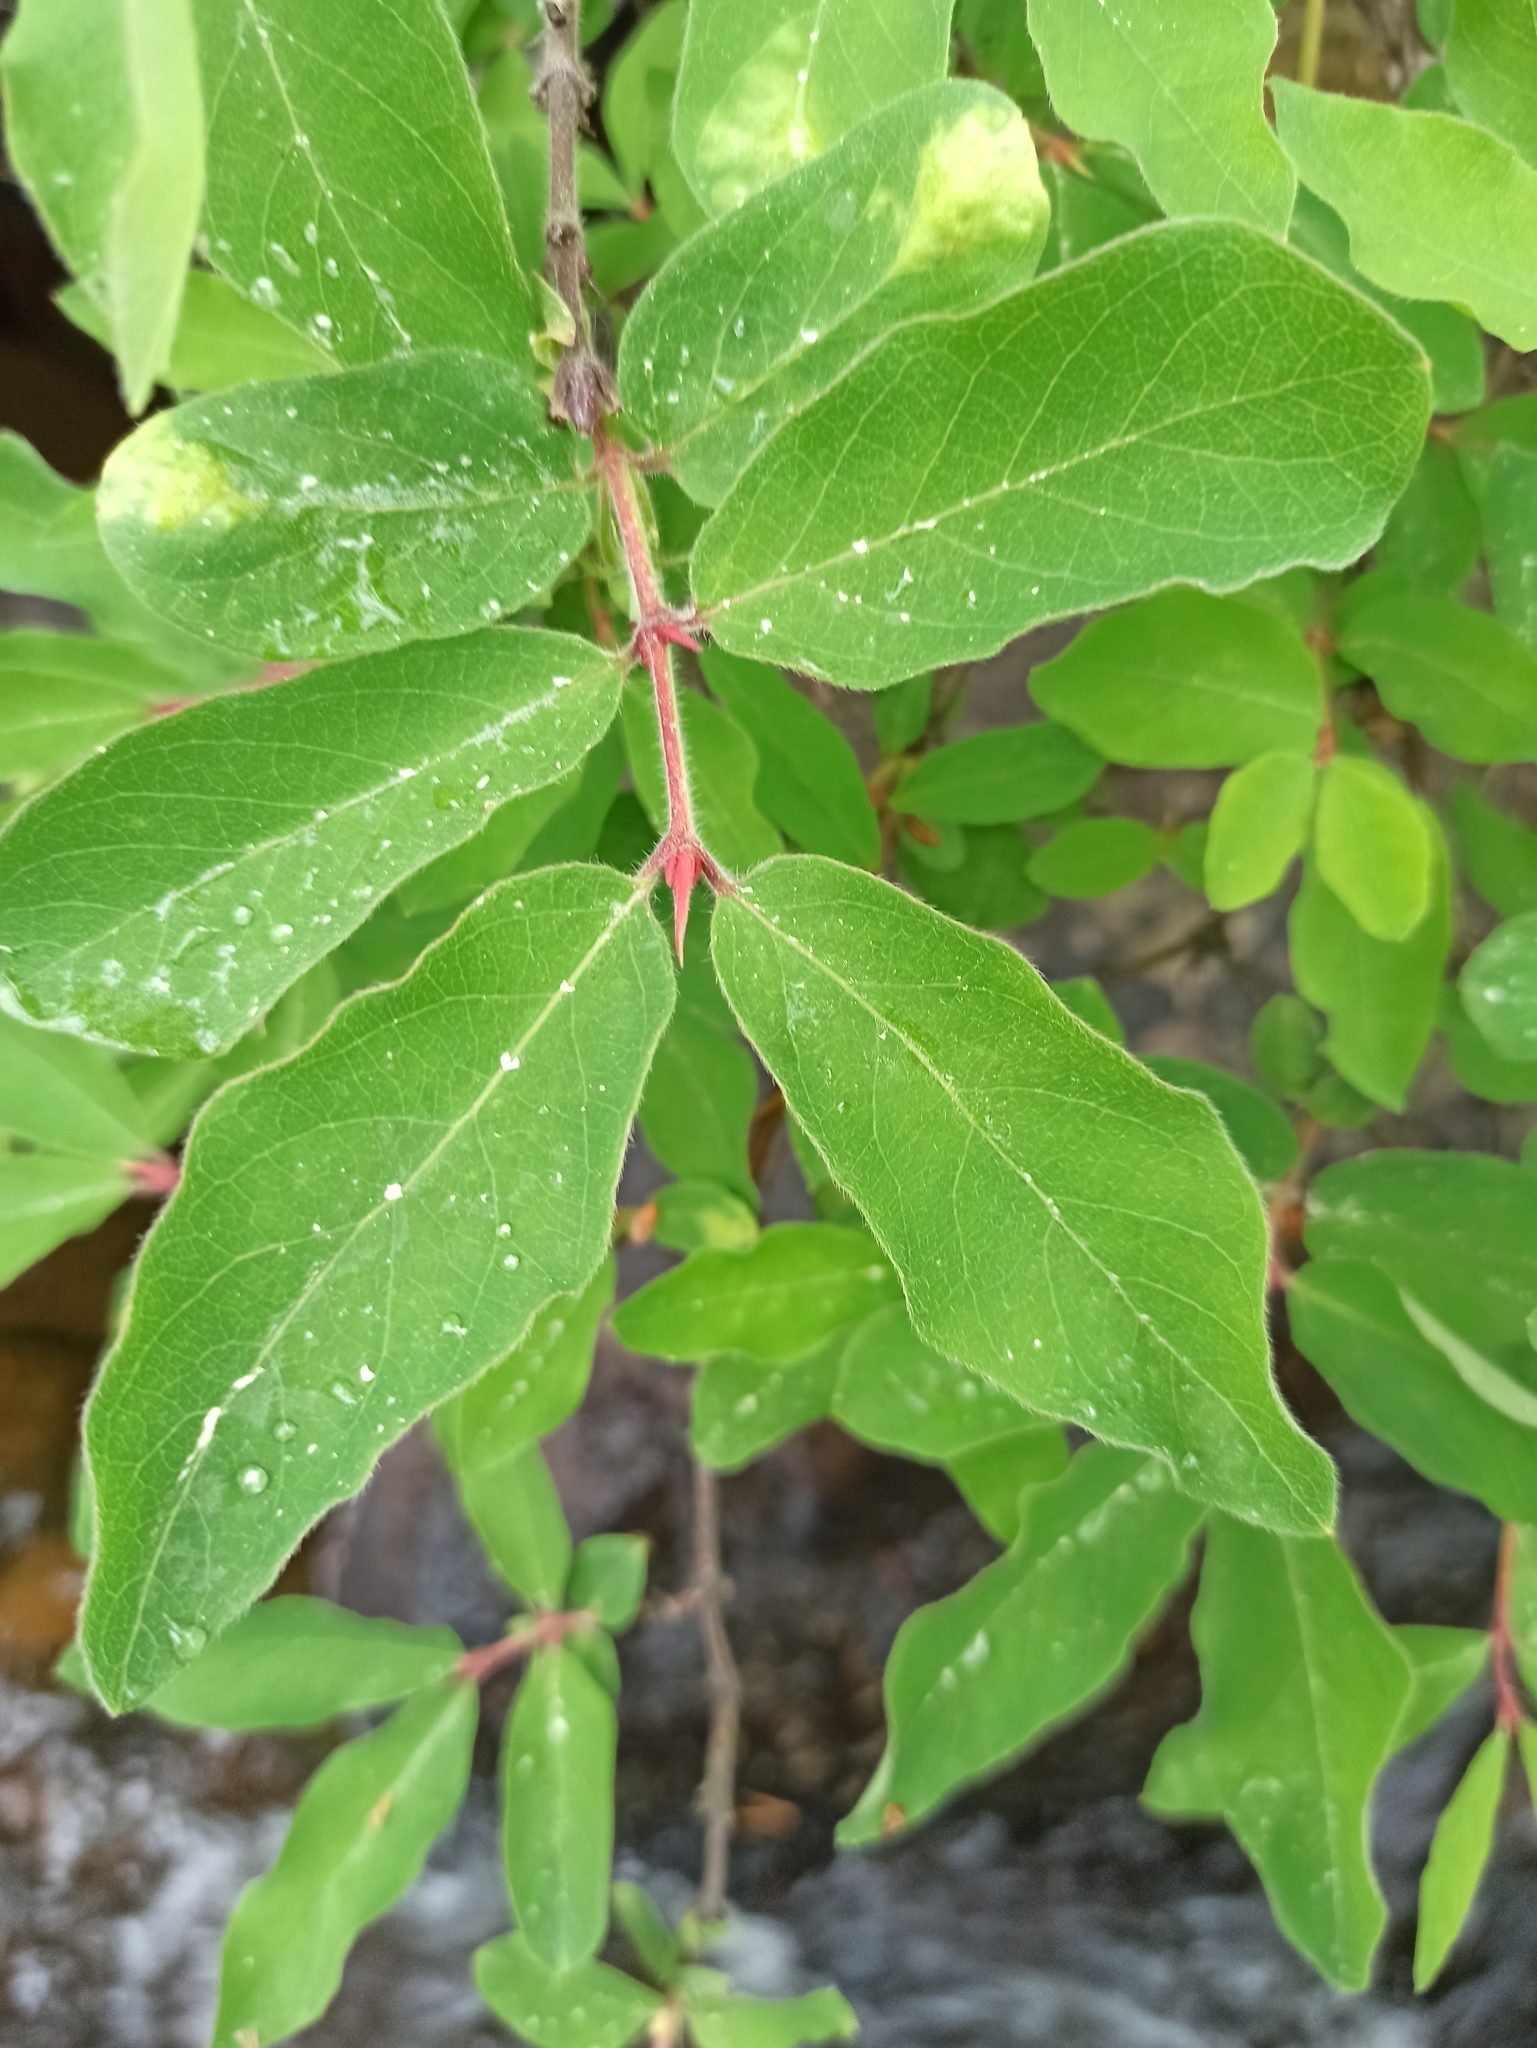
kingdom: Plantae
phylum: Tracheophyta
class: Magnoliopsida
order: Dipsacales
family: Caprifoliaceae
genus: Lonicera
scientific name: Lonicera caerulea
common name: Blue honeysuckle
